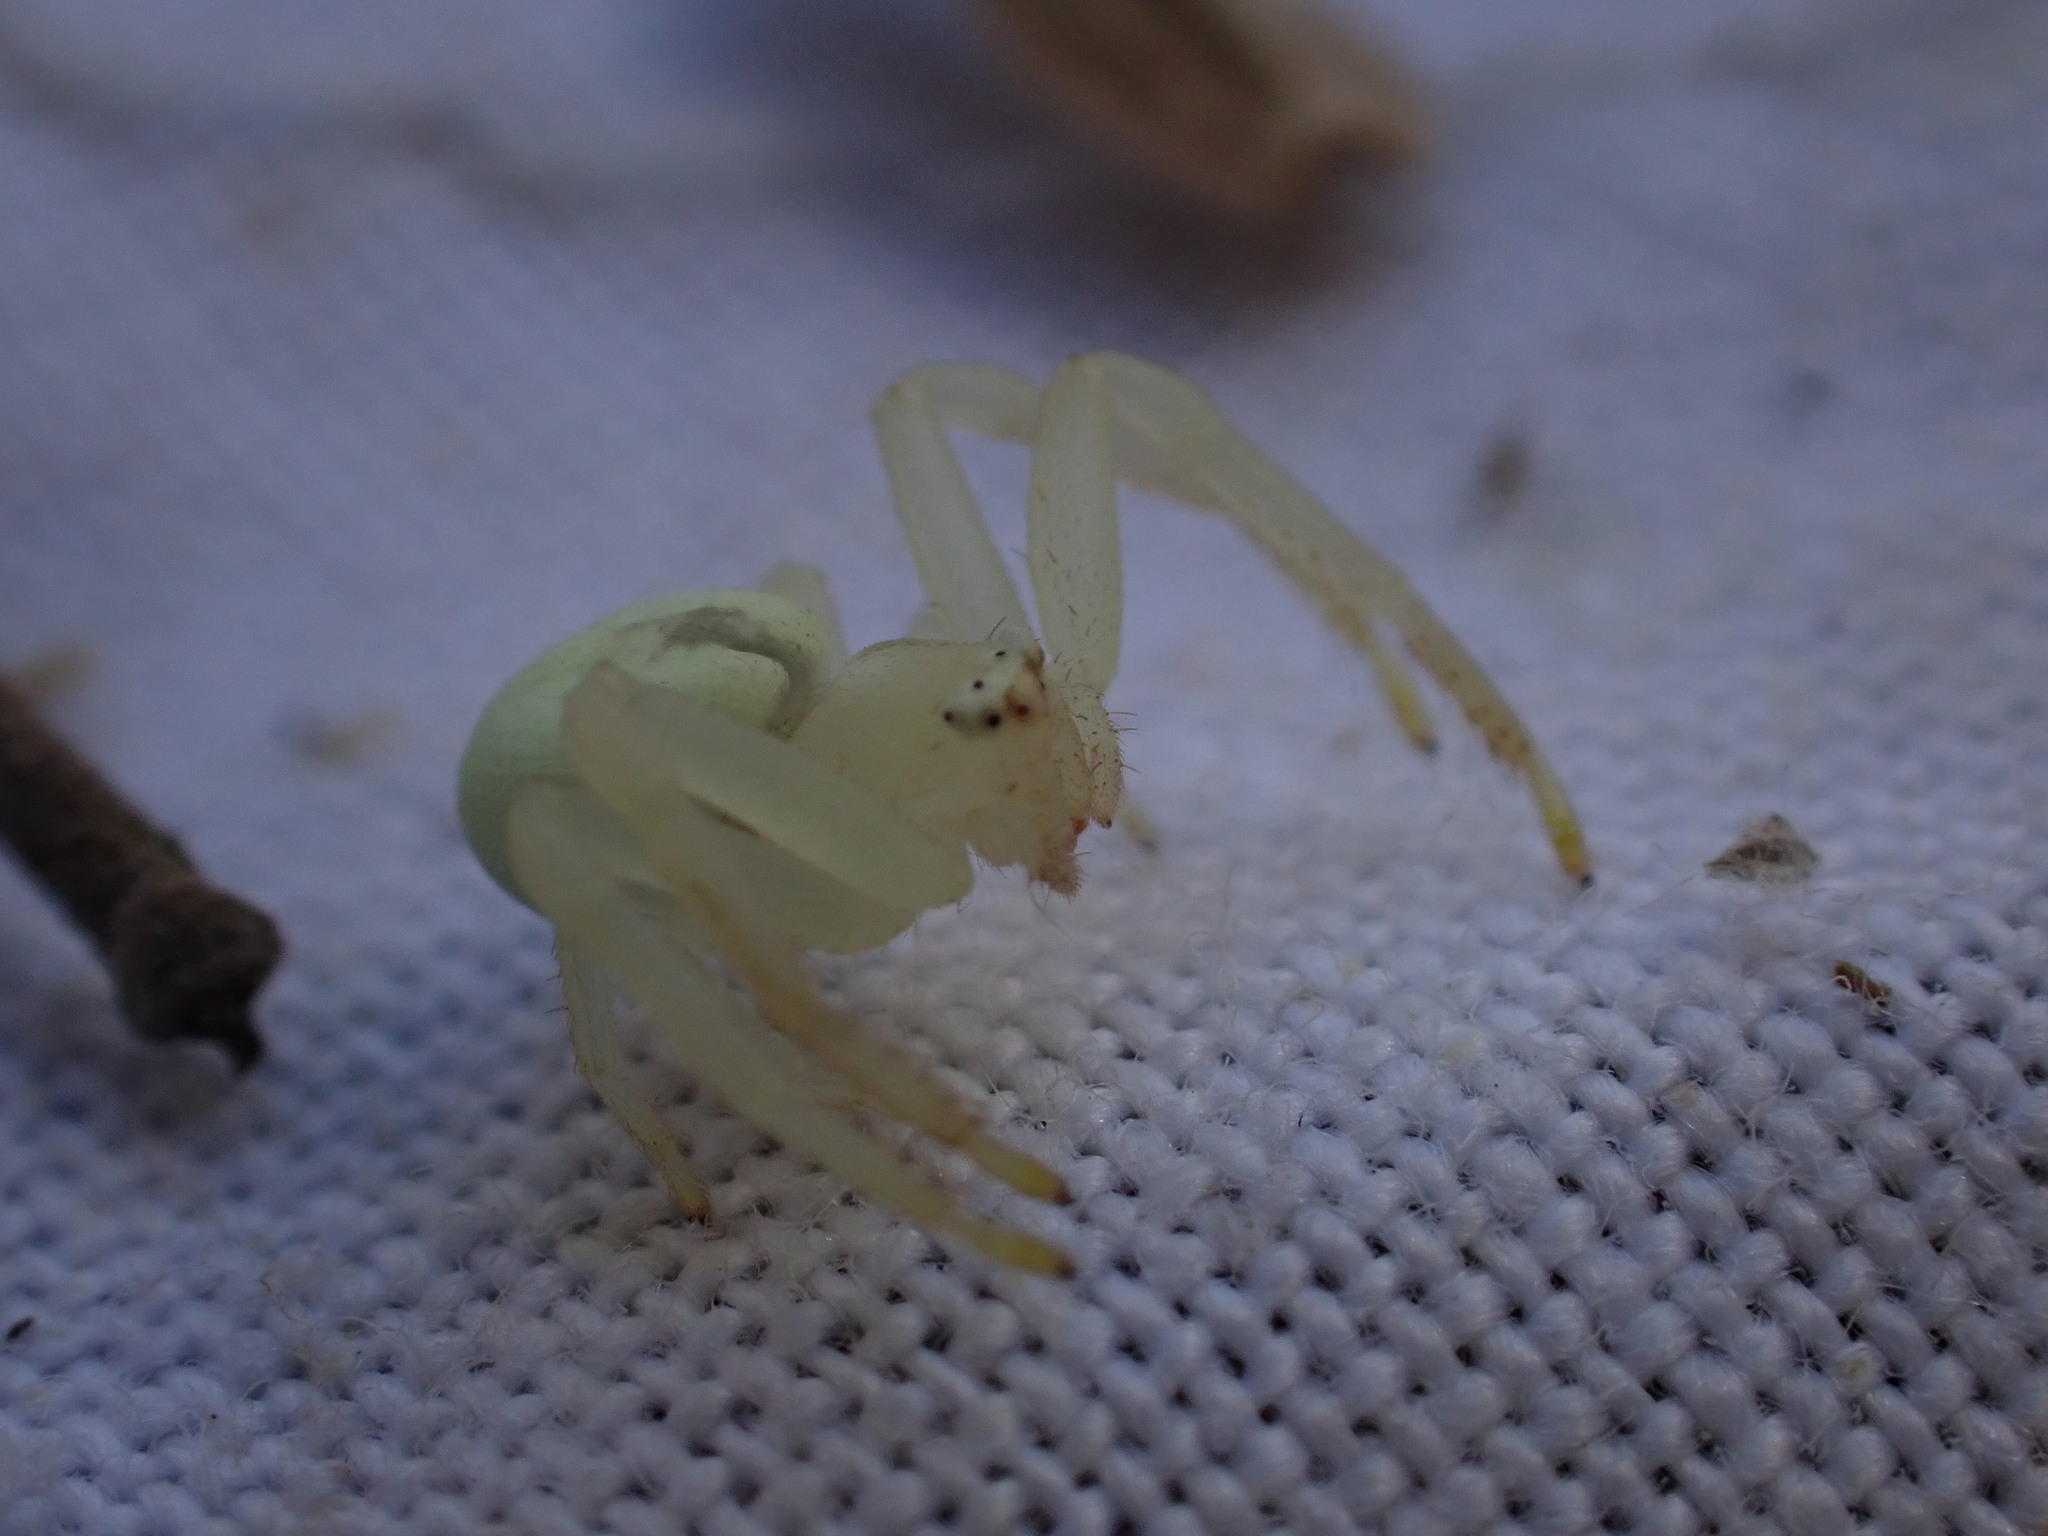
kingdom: Animalia
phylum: Arthropoda
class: Arachnida
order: Araneae
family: Thomisidae
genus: Misumena
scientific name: Misumena vatia
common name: Goldenrod crab spider
